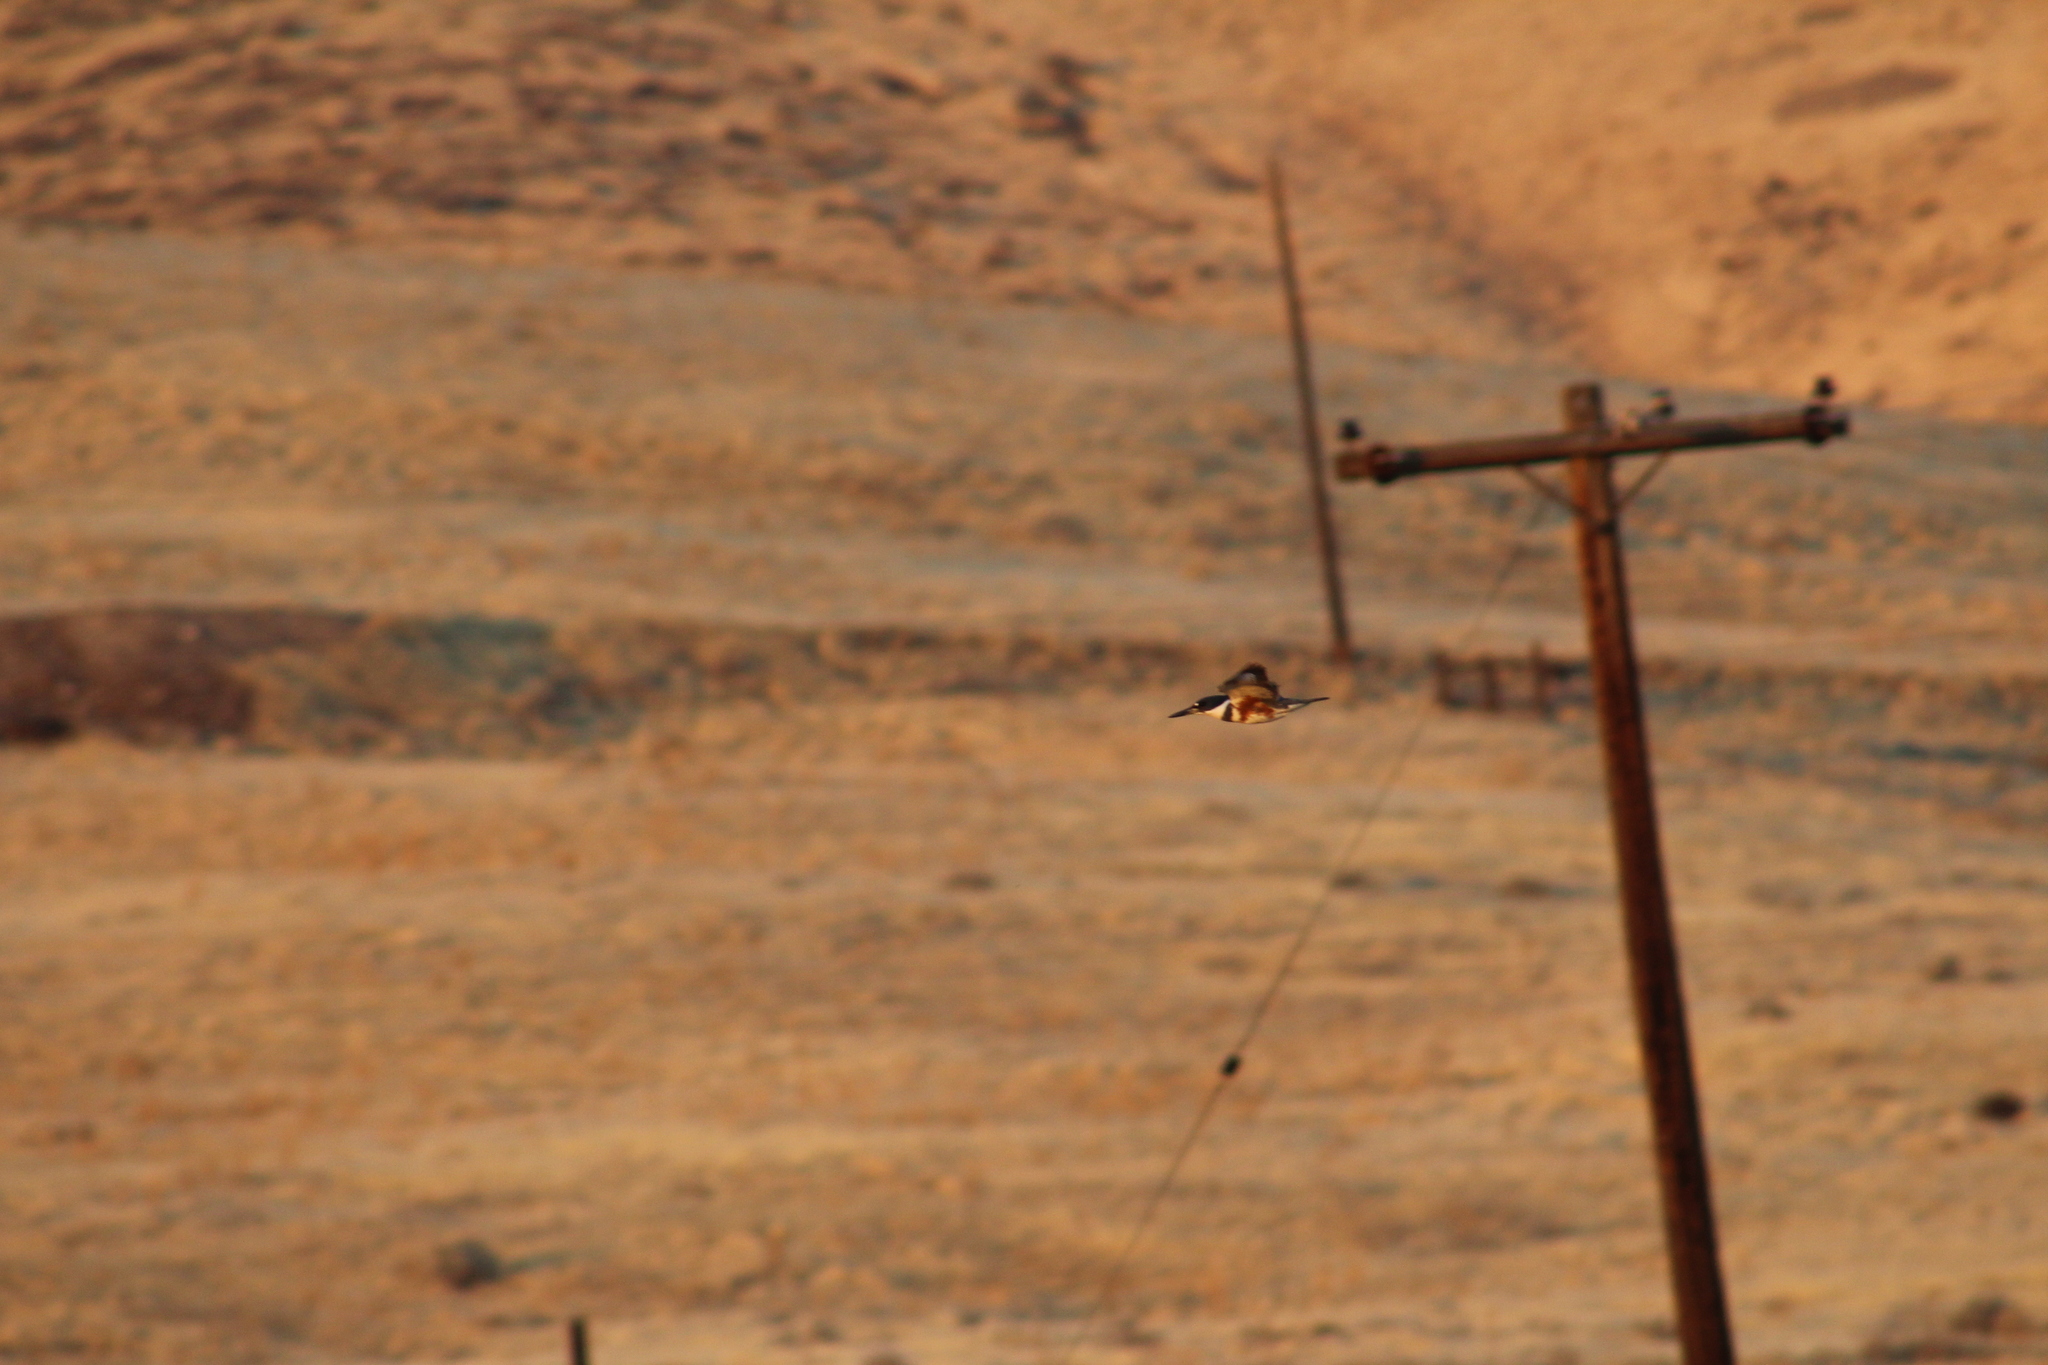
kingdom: Animalia
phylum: Chordata
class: Aves
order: Coraciiformes
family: Alcedinidae
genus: Megaceryle
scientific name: Megaceryle alcyon
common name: Belted kingfisher
